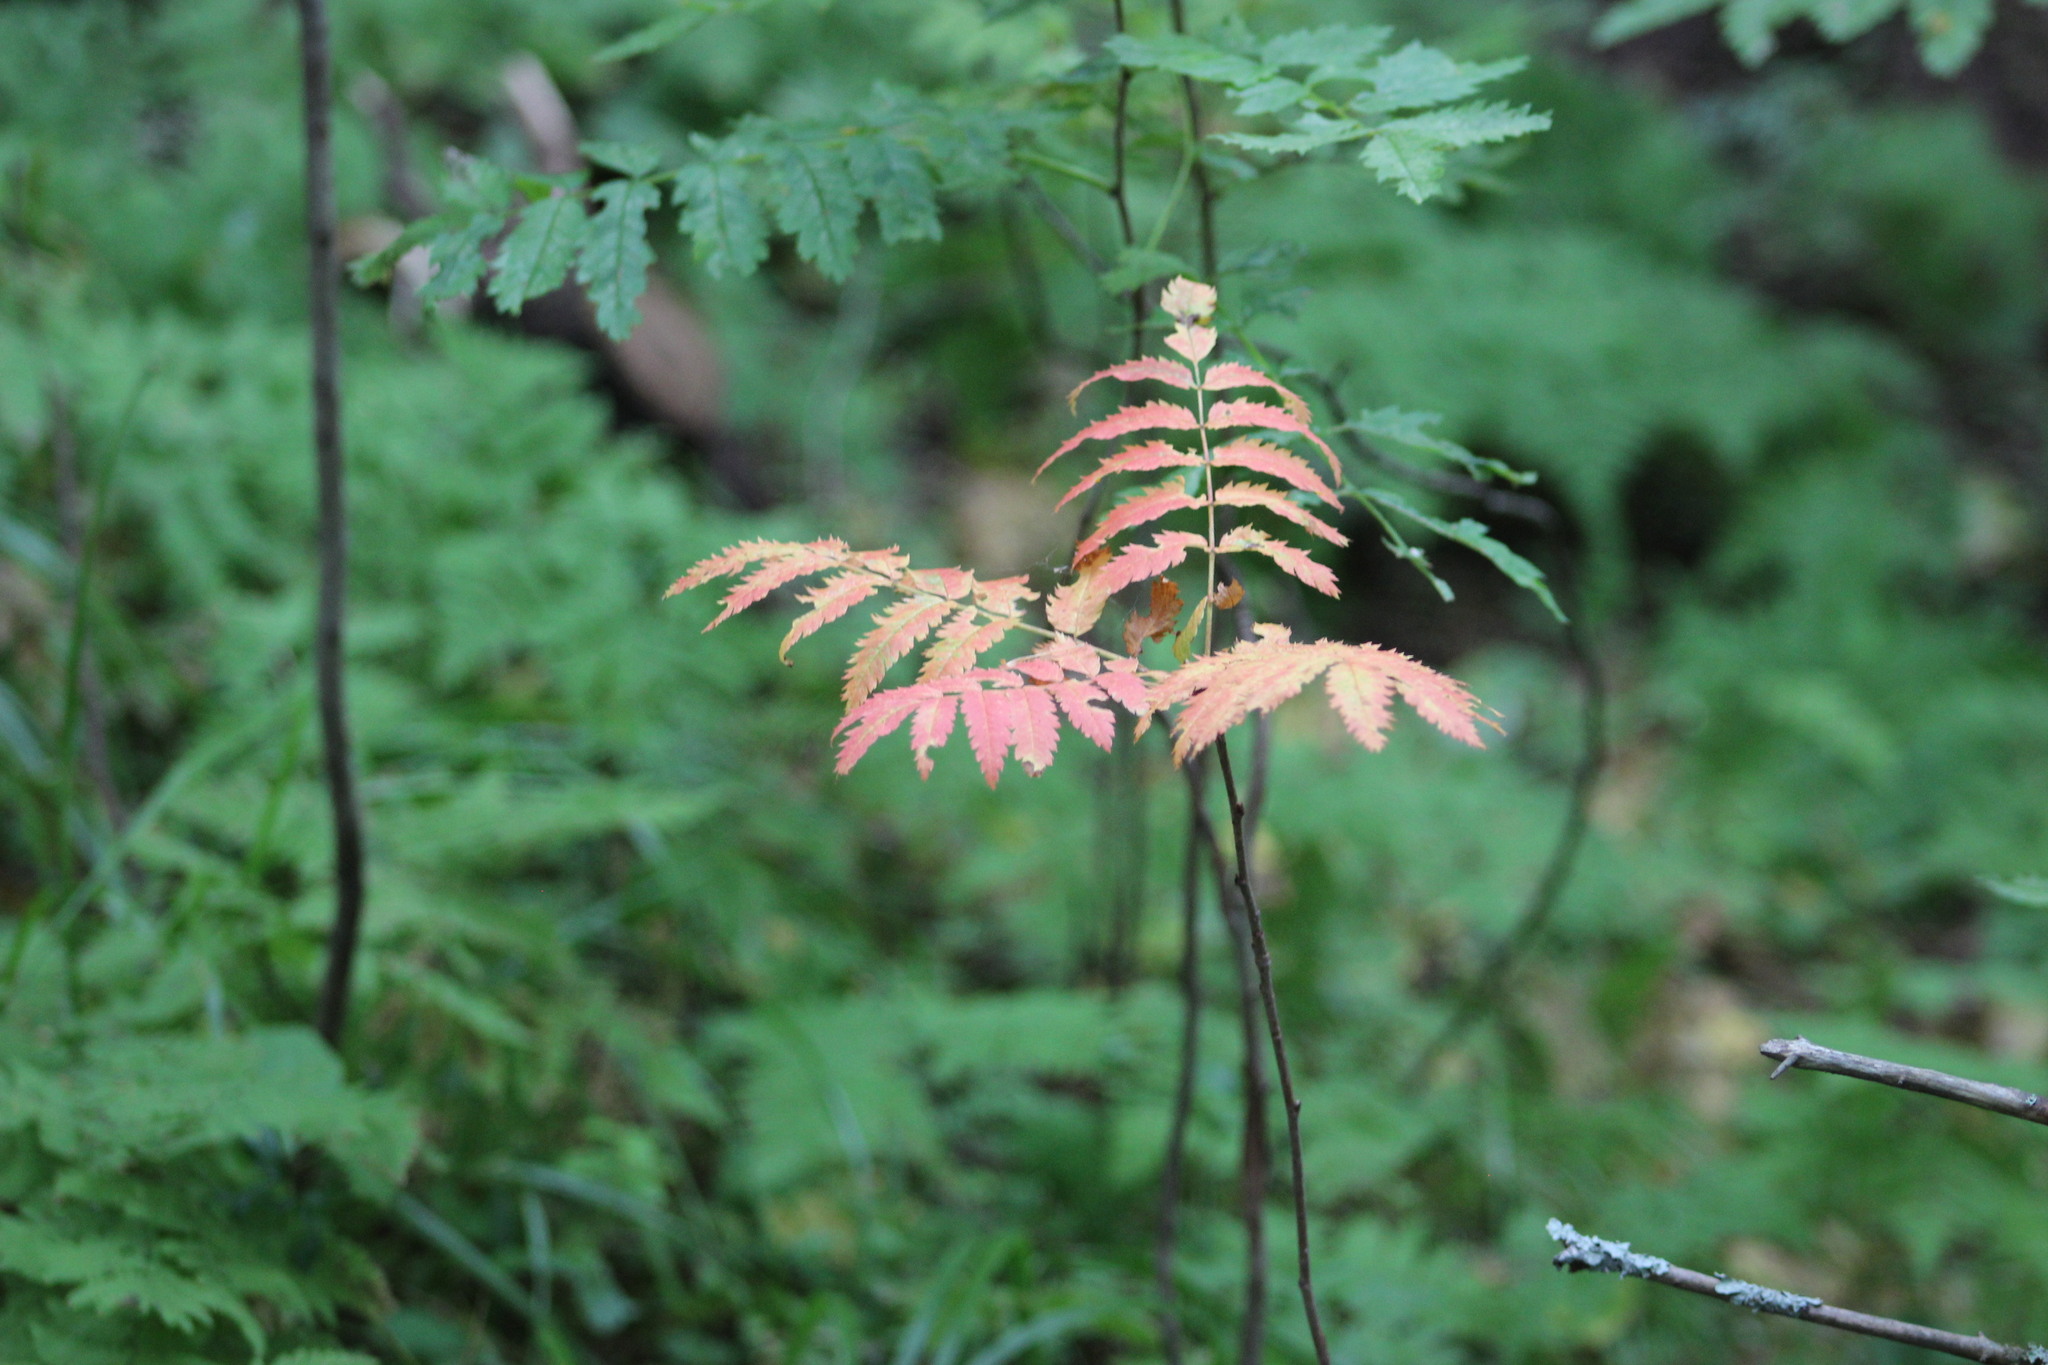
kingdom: Plantae
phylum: Tracheophyta
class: Magnoliopsida
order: Rosales
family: Rosaceae
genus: Sorbus
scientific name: Sorbus aucuparia
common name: Rowan
